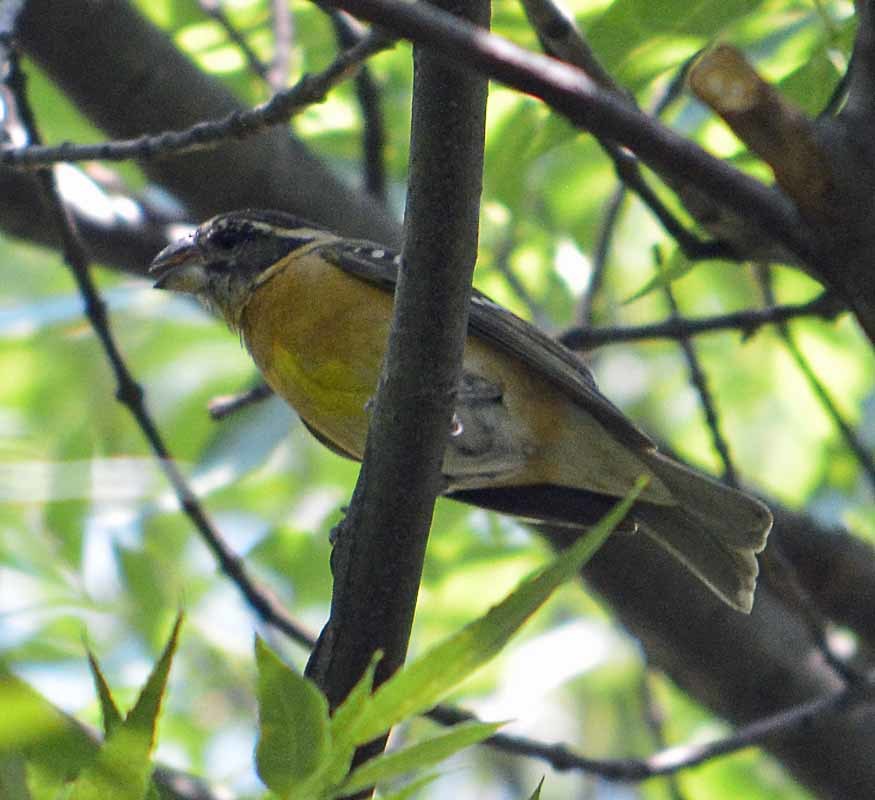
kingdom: Animalia
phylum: Chordata
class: Aves
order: Passeriformes
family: Cardinalidae
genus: Pheucticus
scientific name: Pheucticus melanocephalus
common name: Black-headed grosbeak
